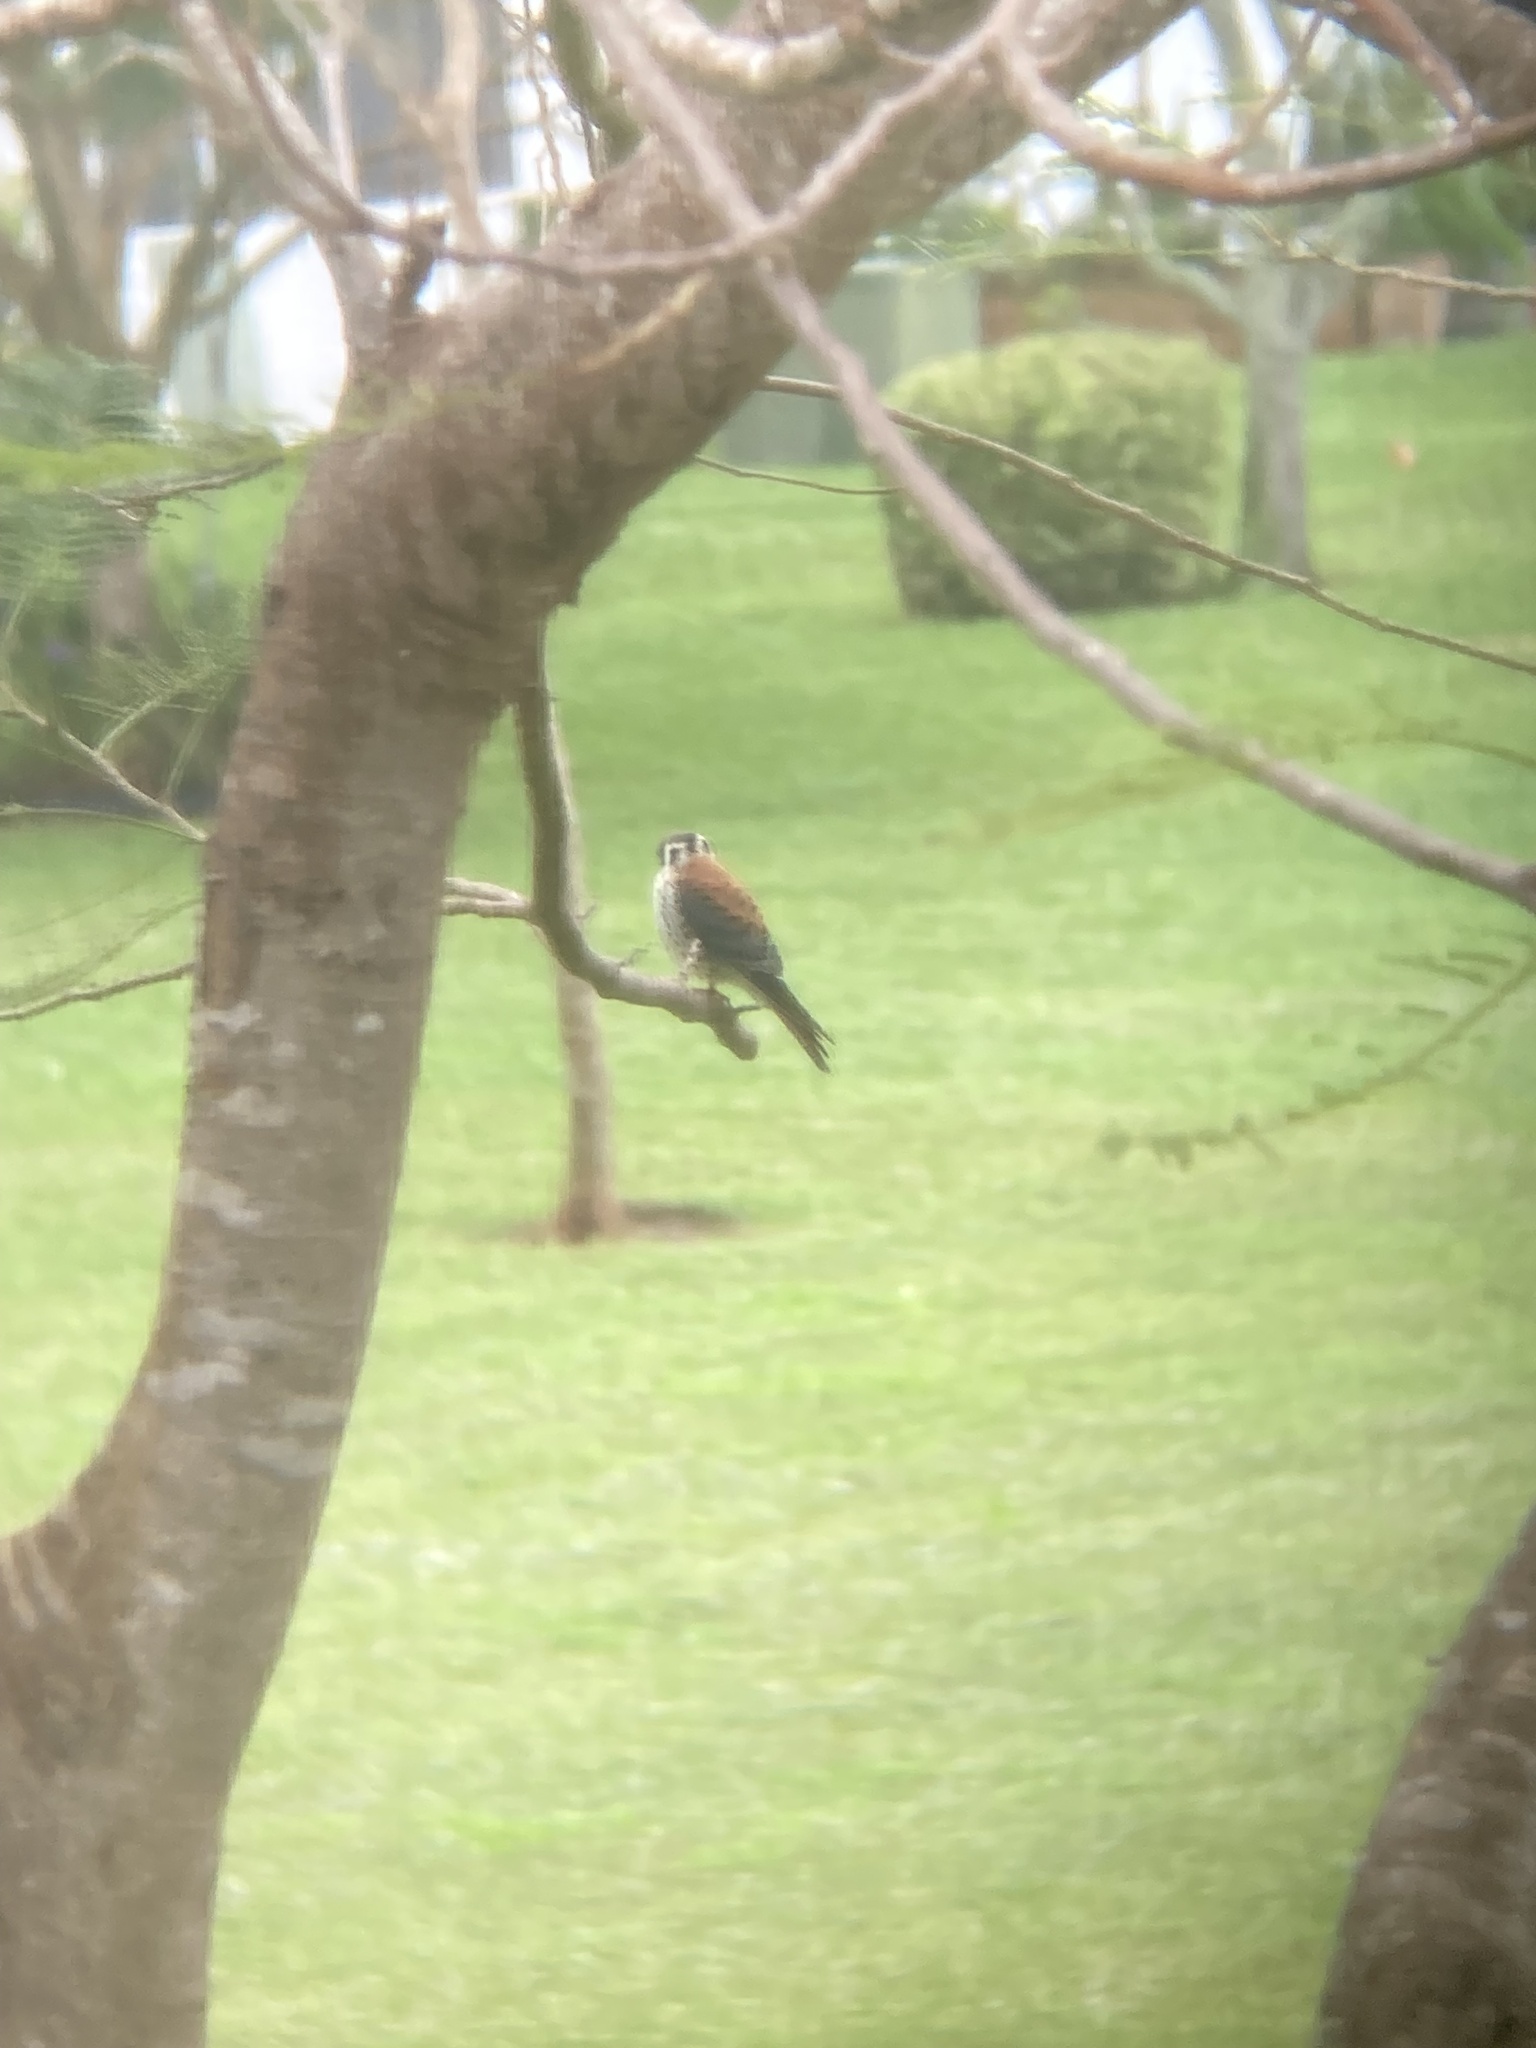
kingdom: Animalia
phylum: Chordata
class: Aves
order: Falconiformes
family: Falconidae
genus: Falco
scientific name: Falco sparverius
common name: American kestrel
